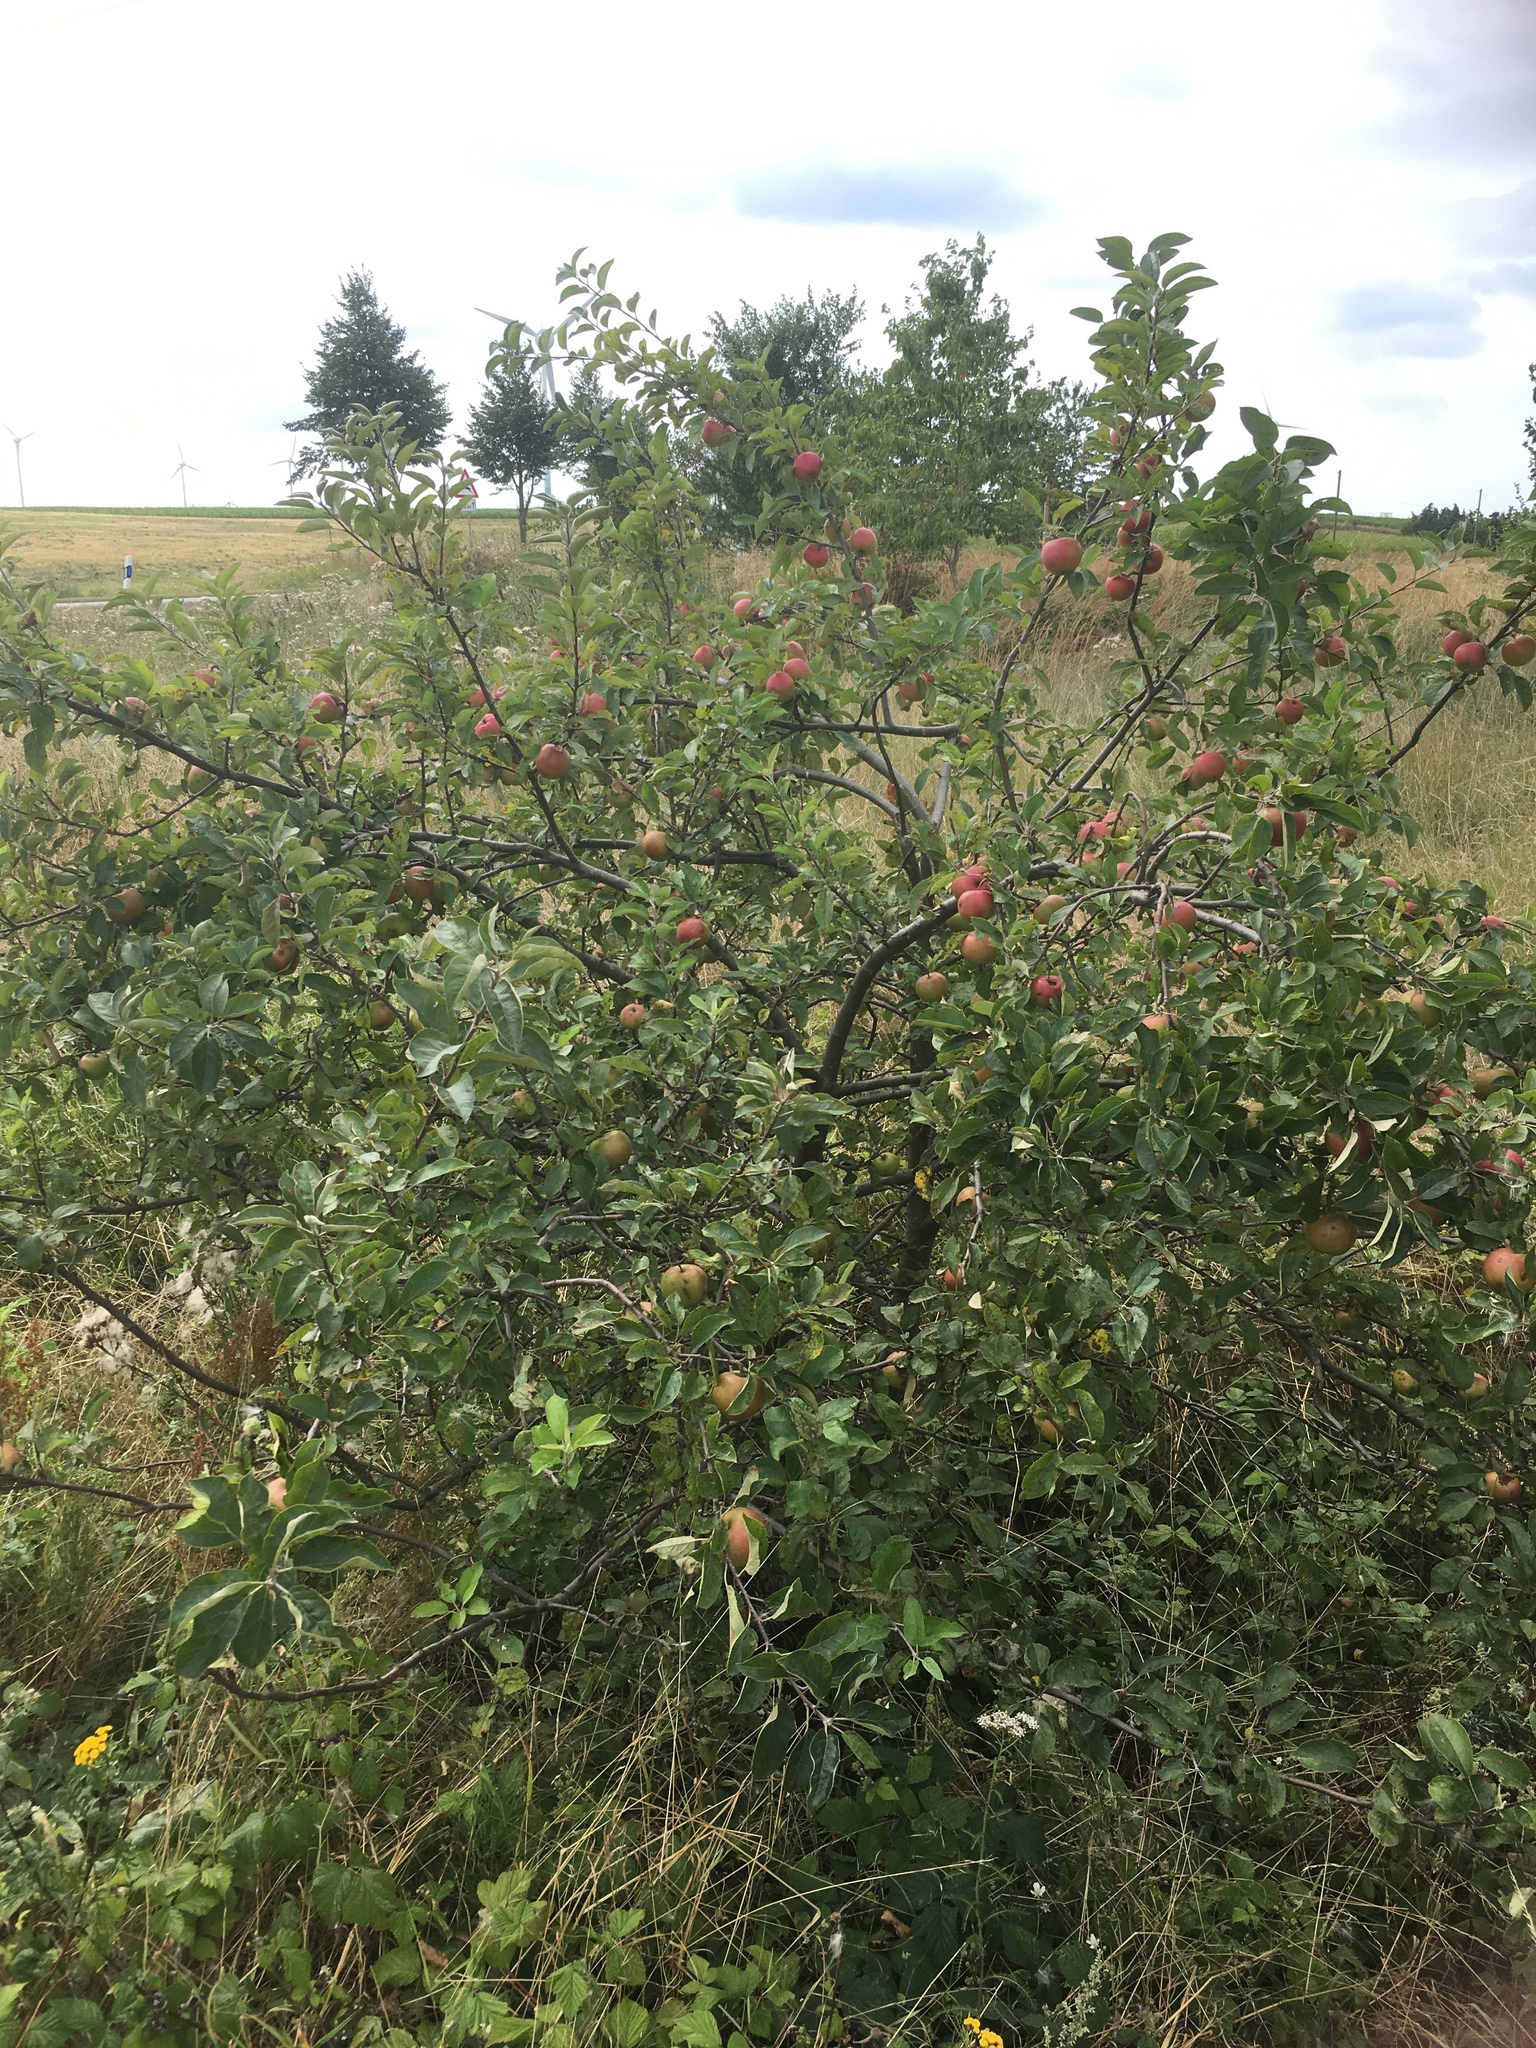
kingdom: Plantae
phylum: Tracheophyta
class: Magnoliopsida
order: Rosales
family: Rosaceae
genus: Malus
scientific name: Malus domestica
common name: Apple
